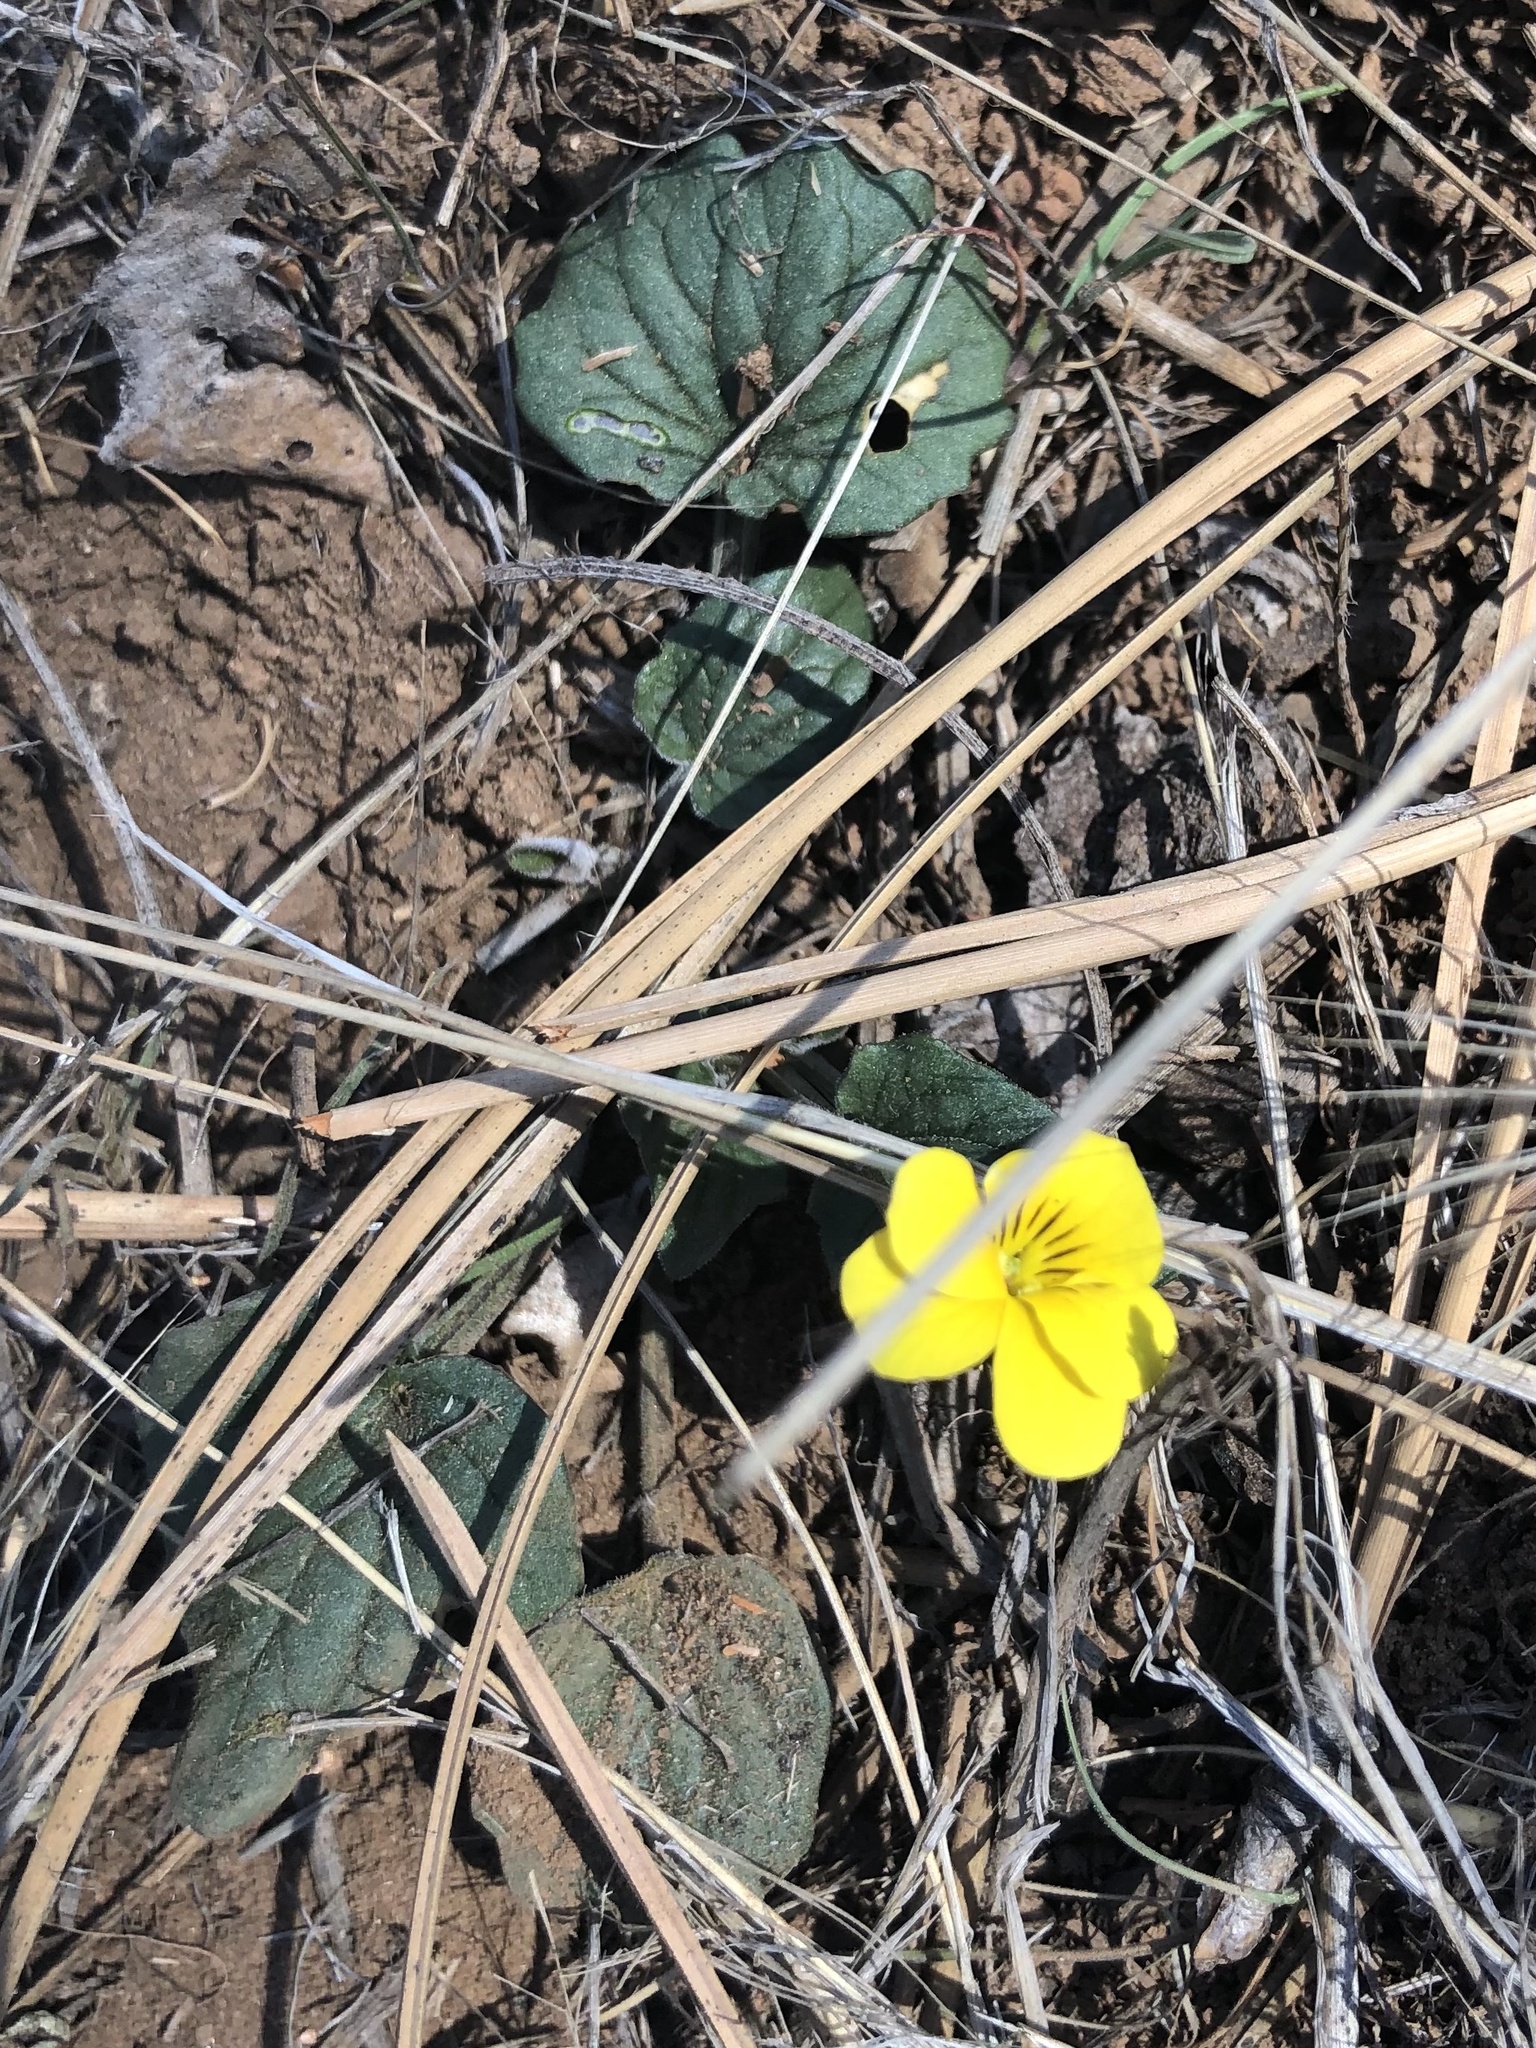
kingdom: Plantae
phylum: Tracheophyta
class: Magnoliopsida
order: Malpighiales
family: Violaceae
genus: Viola
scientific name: Viola purpurea
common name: Pine violet
